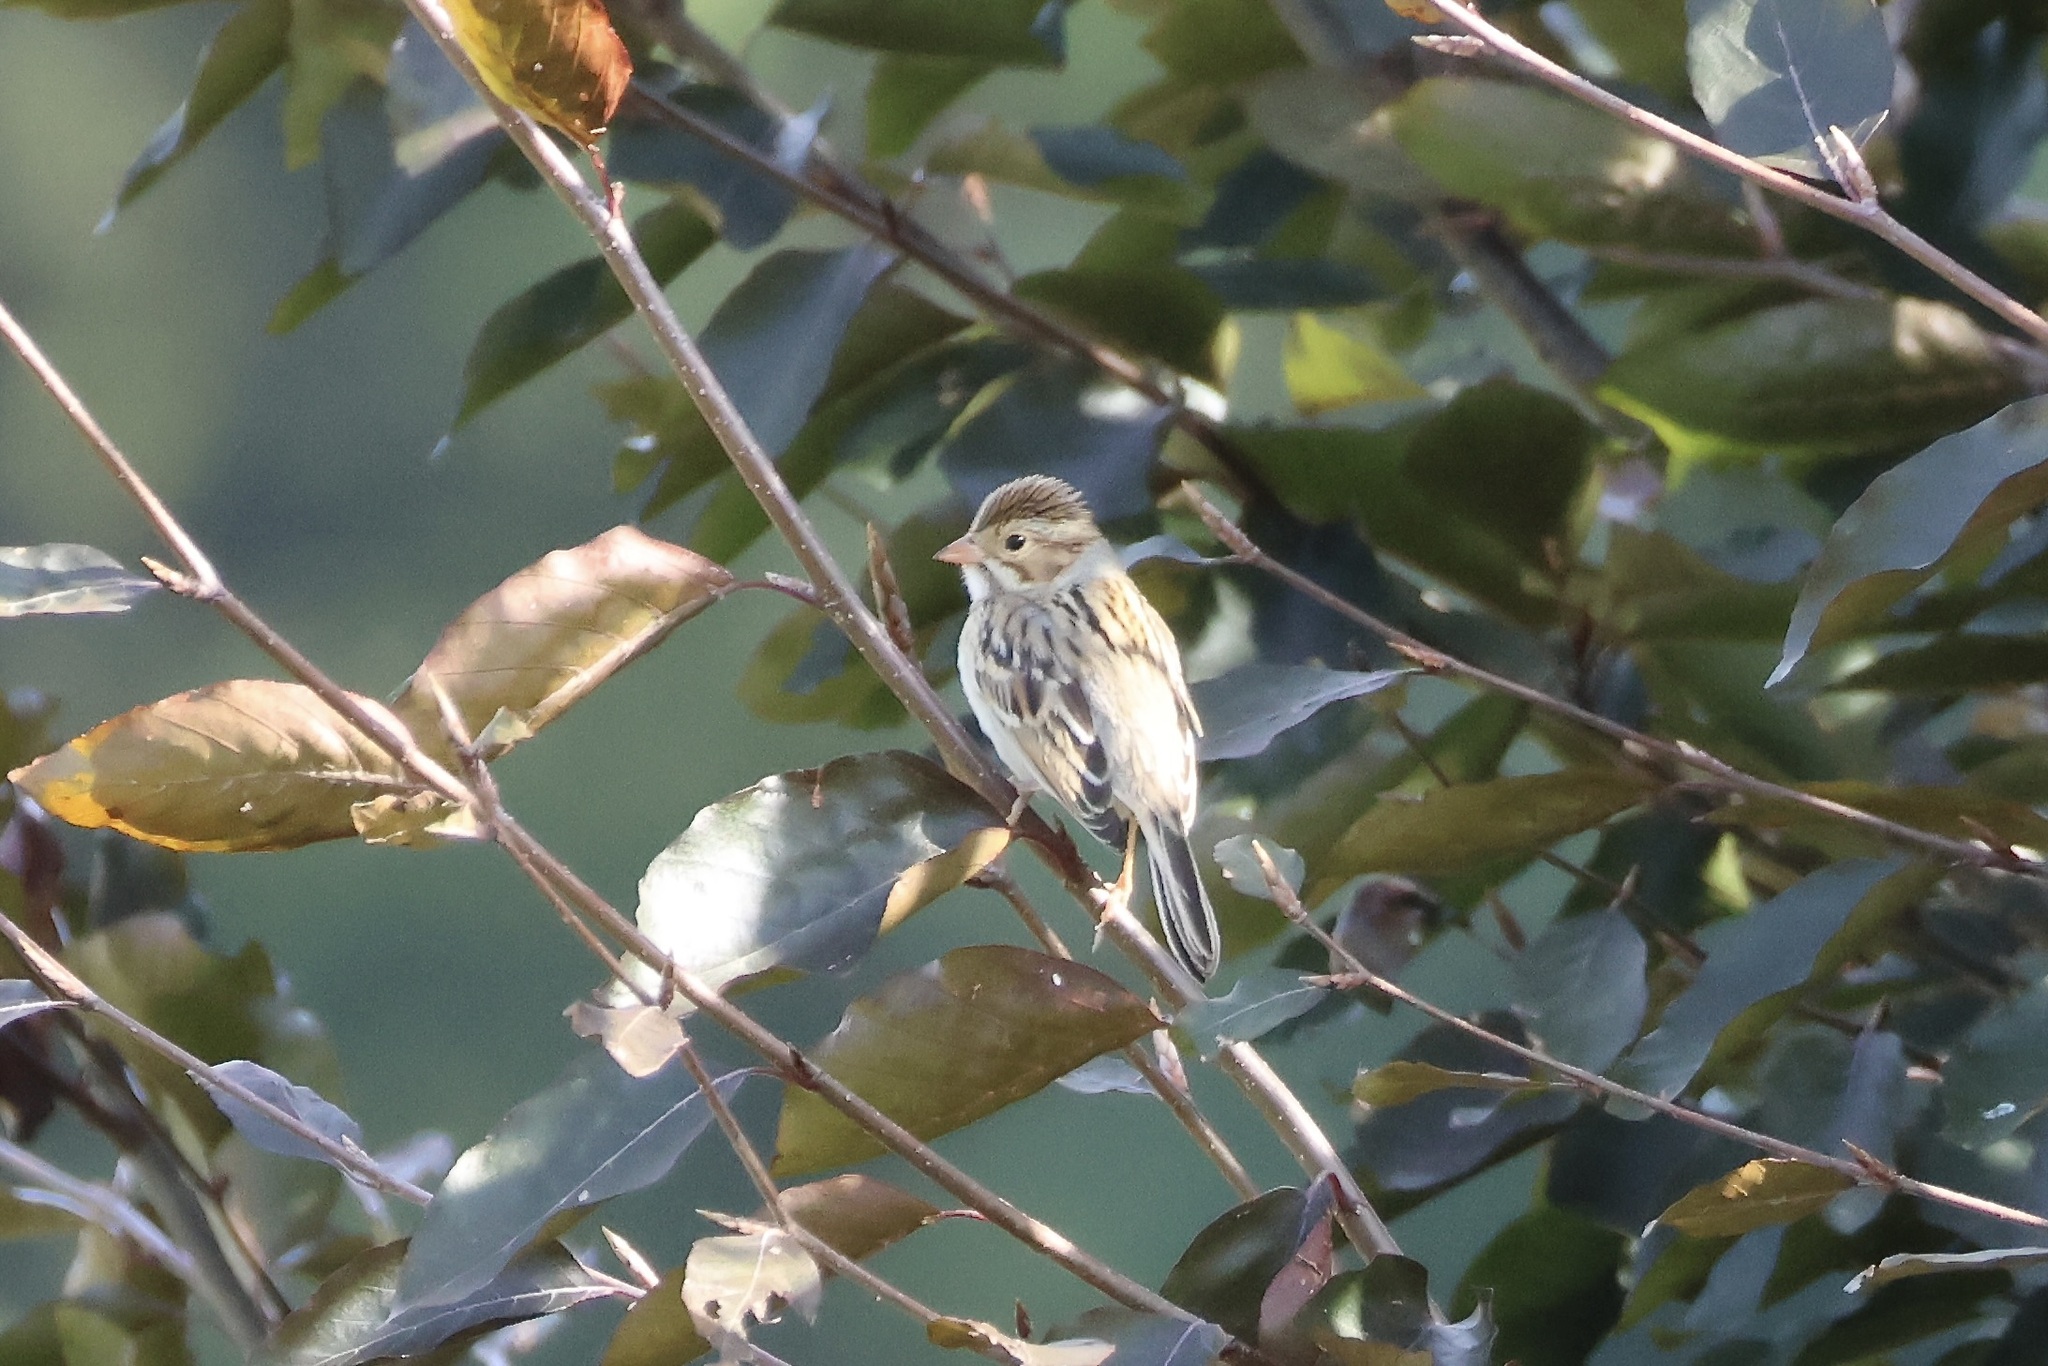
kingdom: Animalia
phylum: Chordata
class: Aves
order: Passeriformes
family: Passerellidae
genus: Spizella
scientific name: Spizella pallida
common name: Clay-colored sparrow
